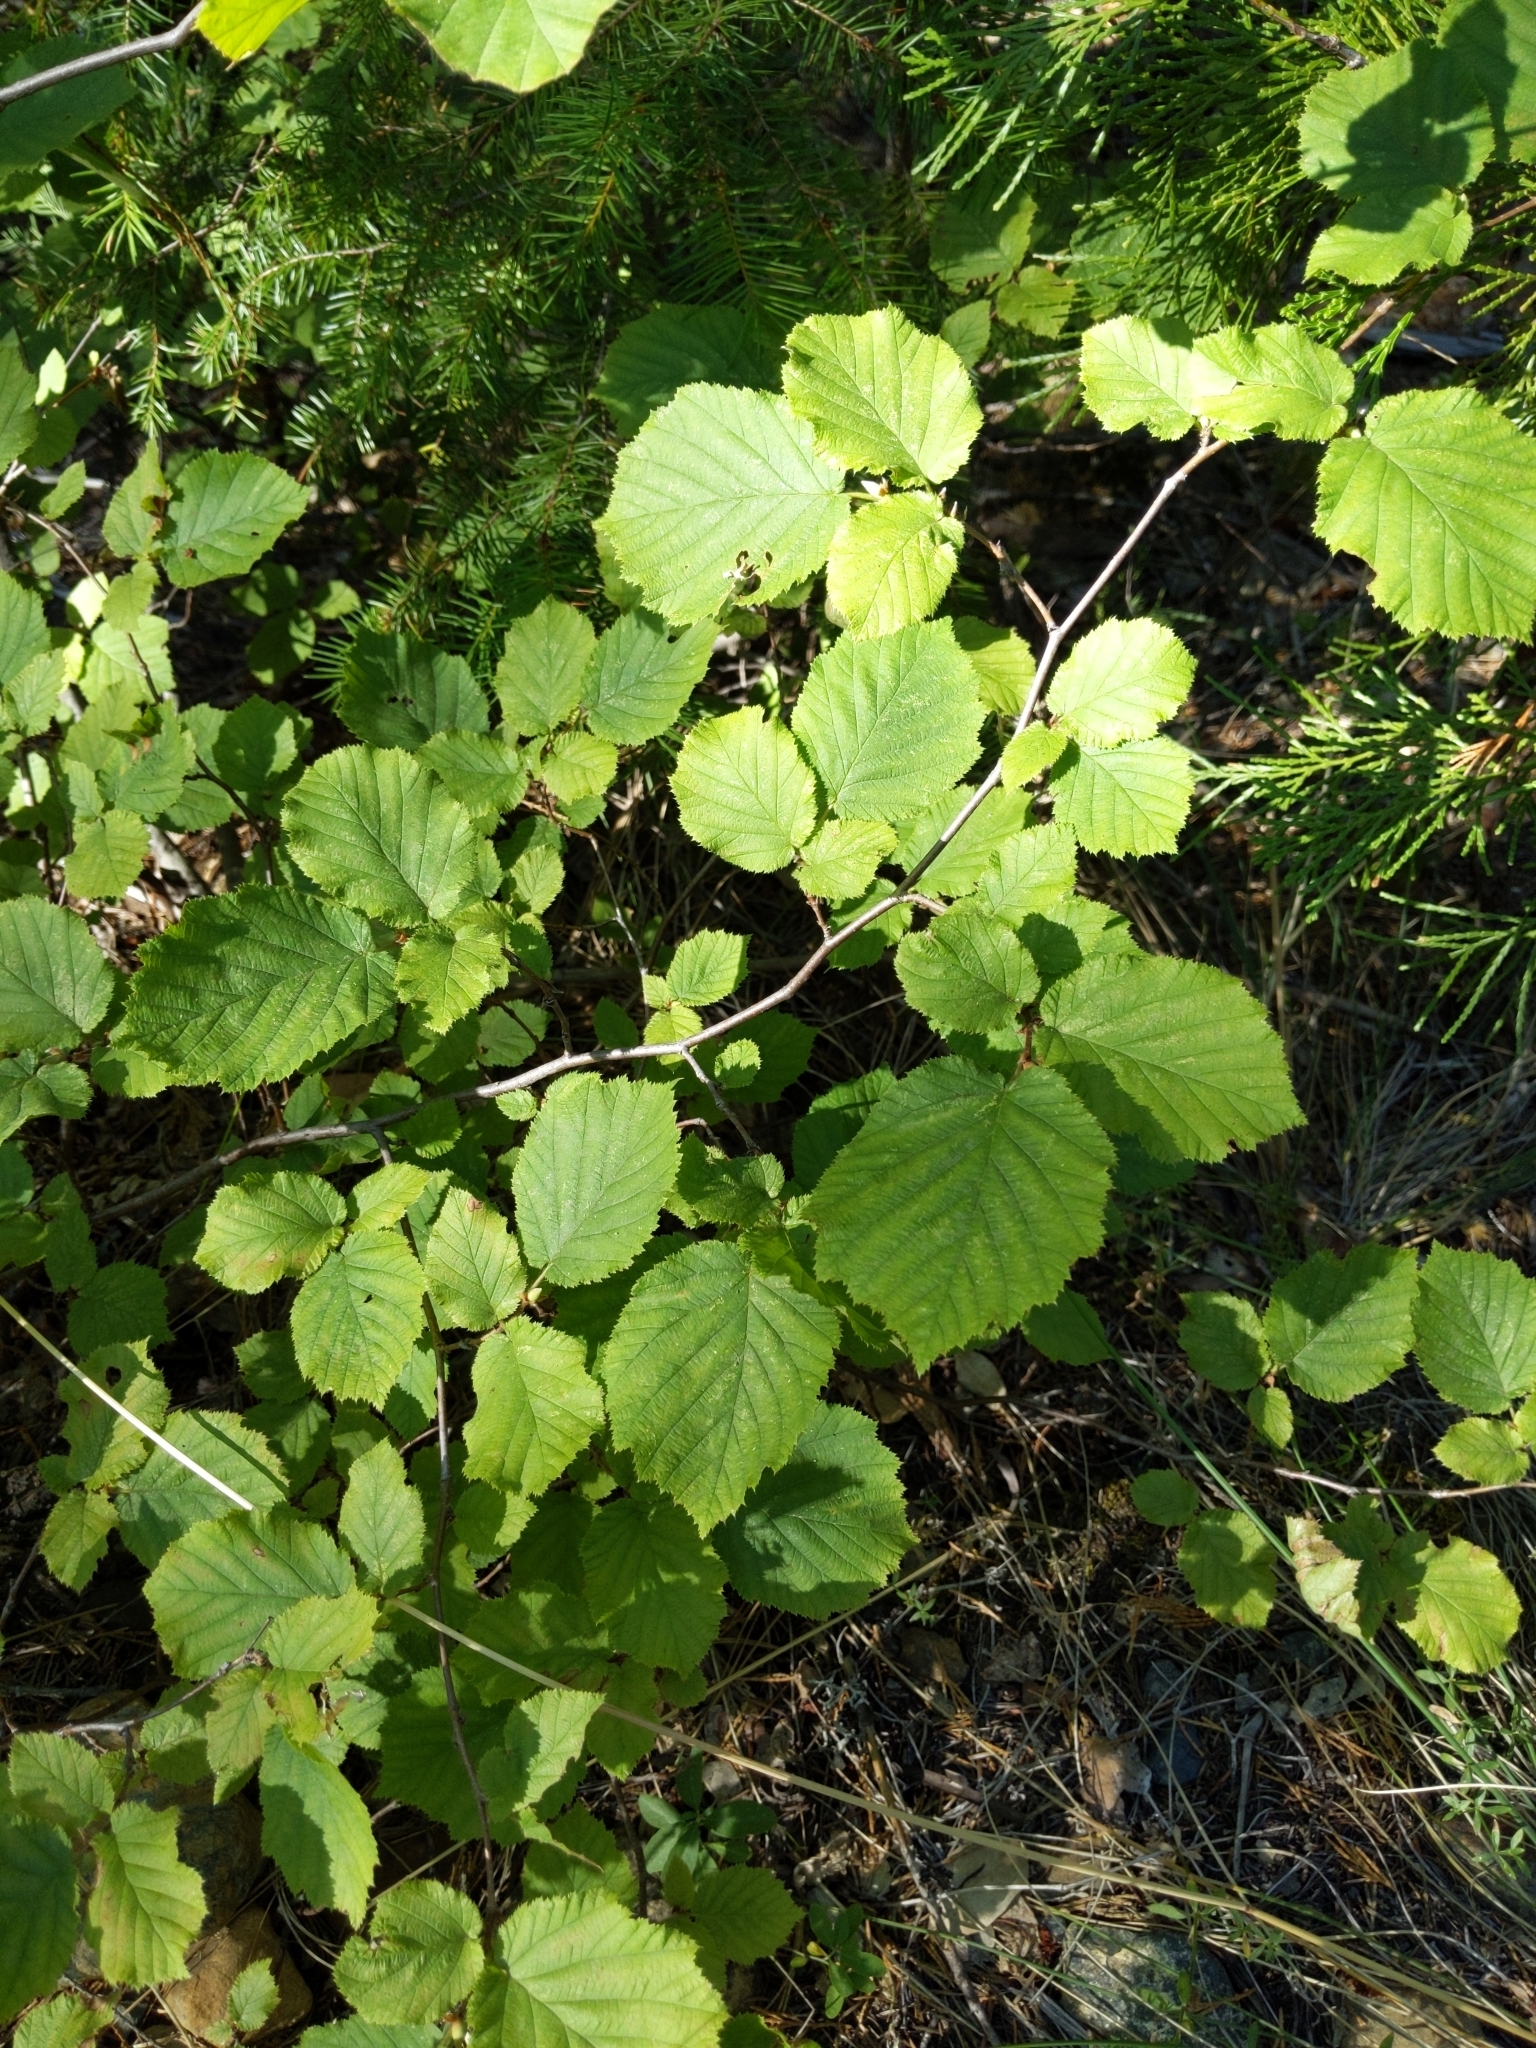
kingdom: Plantae
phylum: Tracheophyta
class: Magnoliopsida
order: Fagales
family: Betulaceae
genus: Corylus
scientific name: Corylus cornuta
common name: Beaked hazel
